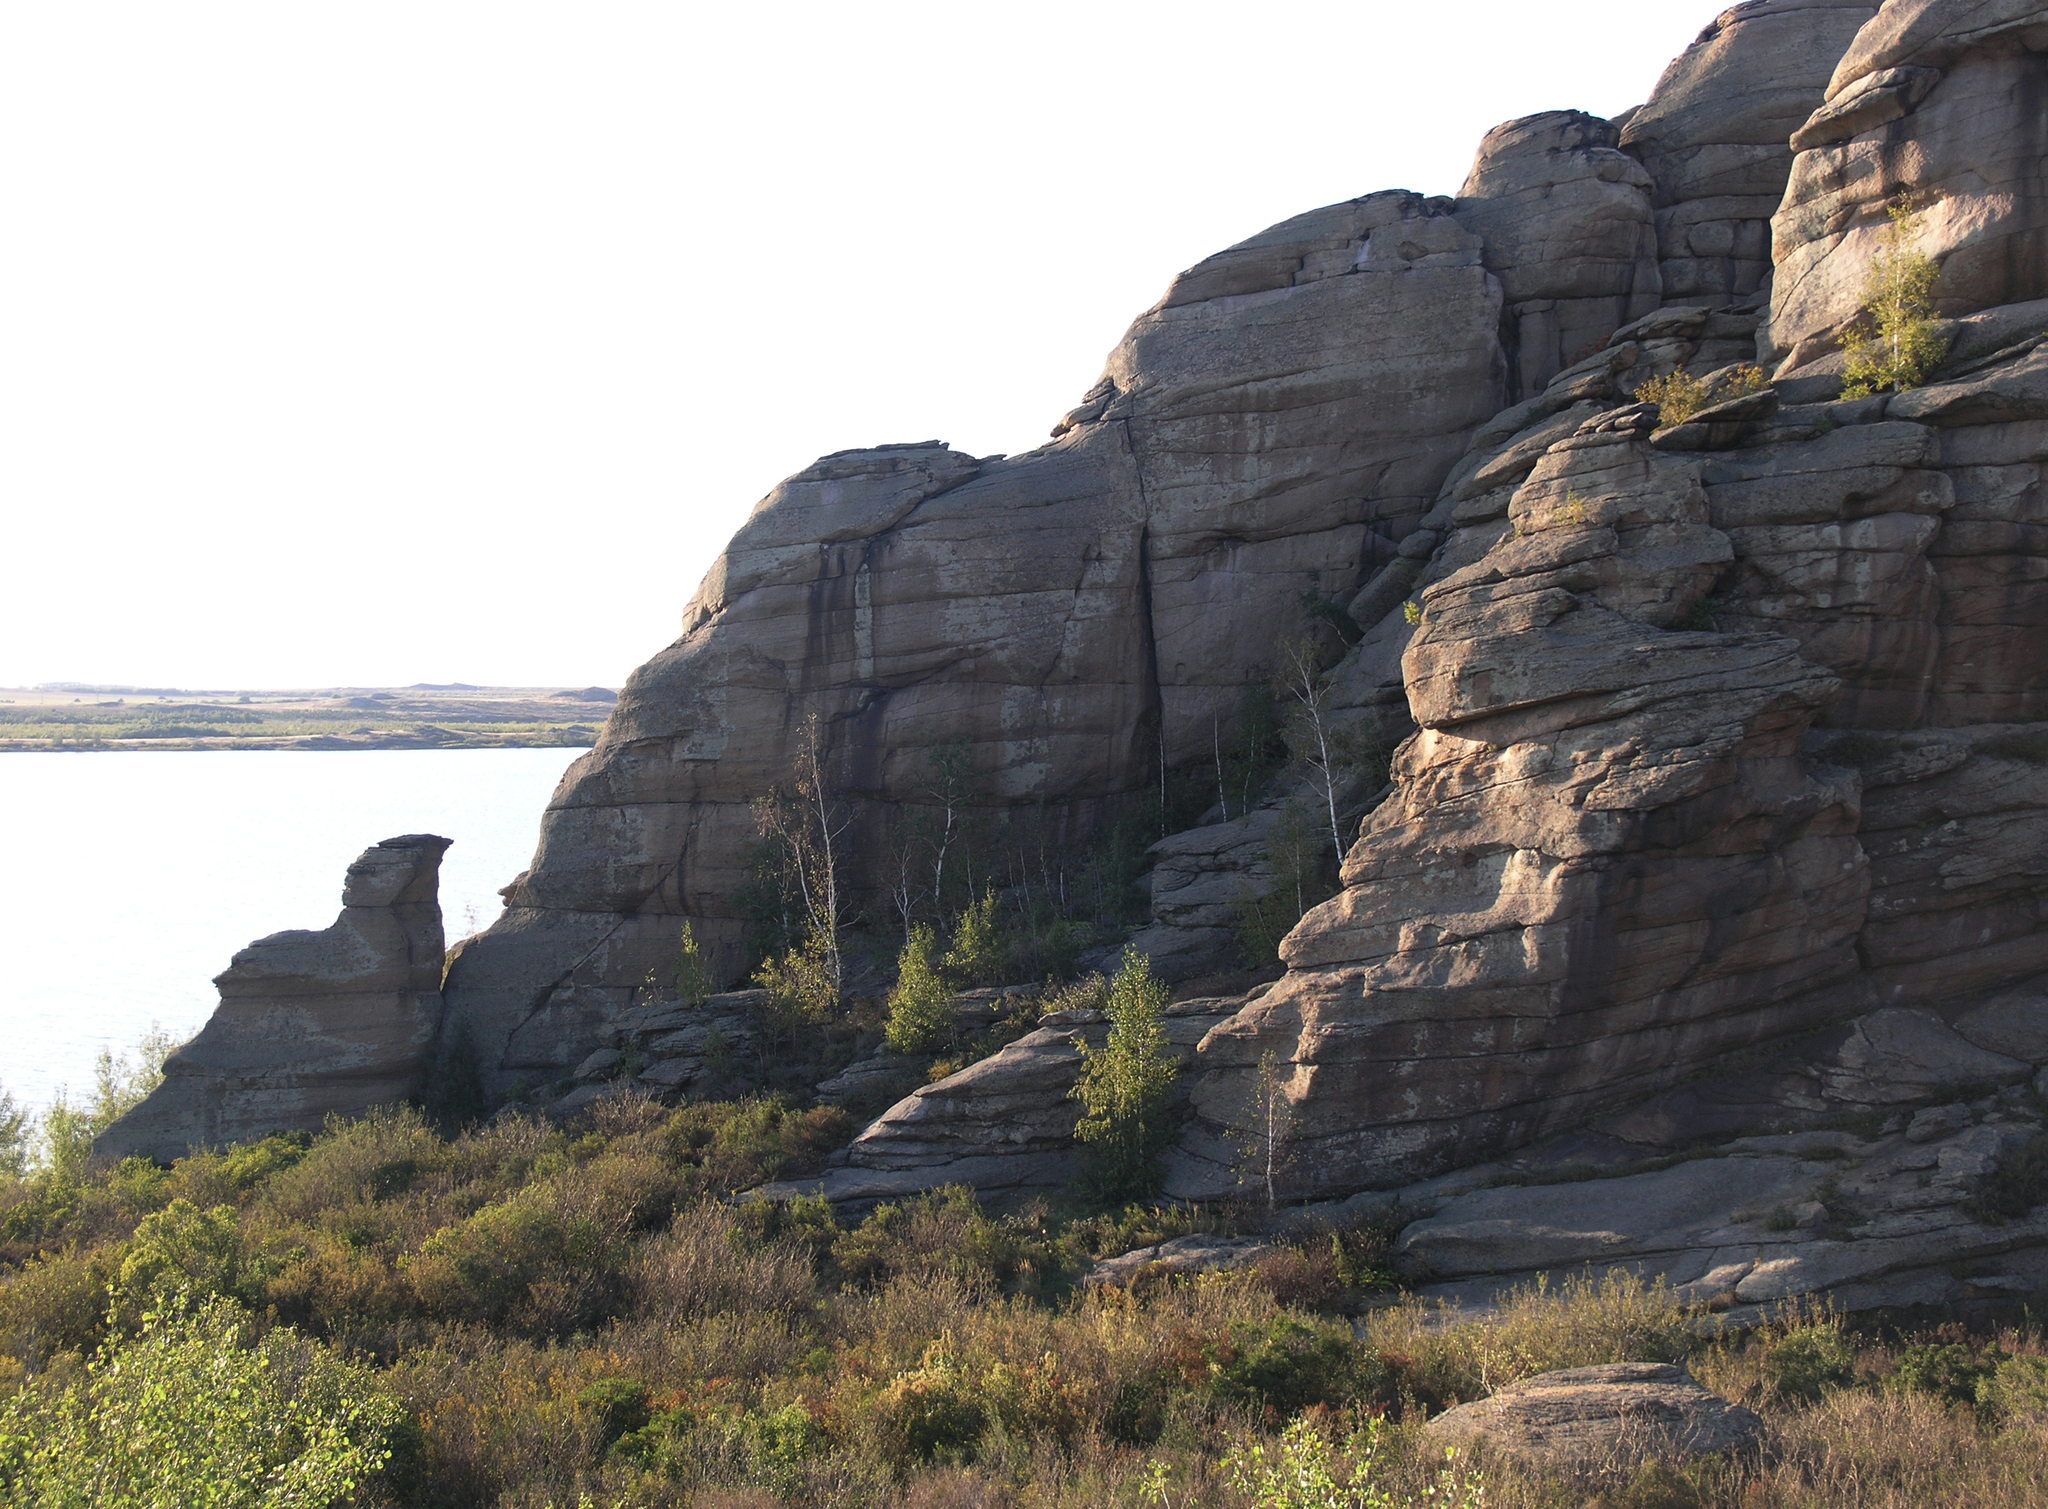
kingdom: Plantae
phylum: Tracheophyta
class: Magnoliopsida
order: Fagales
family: Betulaceae
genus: Betula
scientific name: Betula pendula
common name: Silver birch
